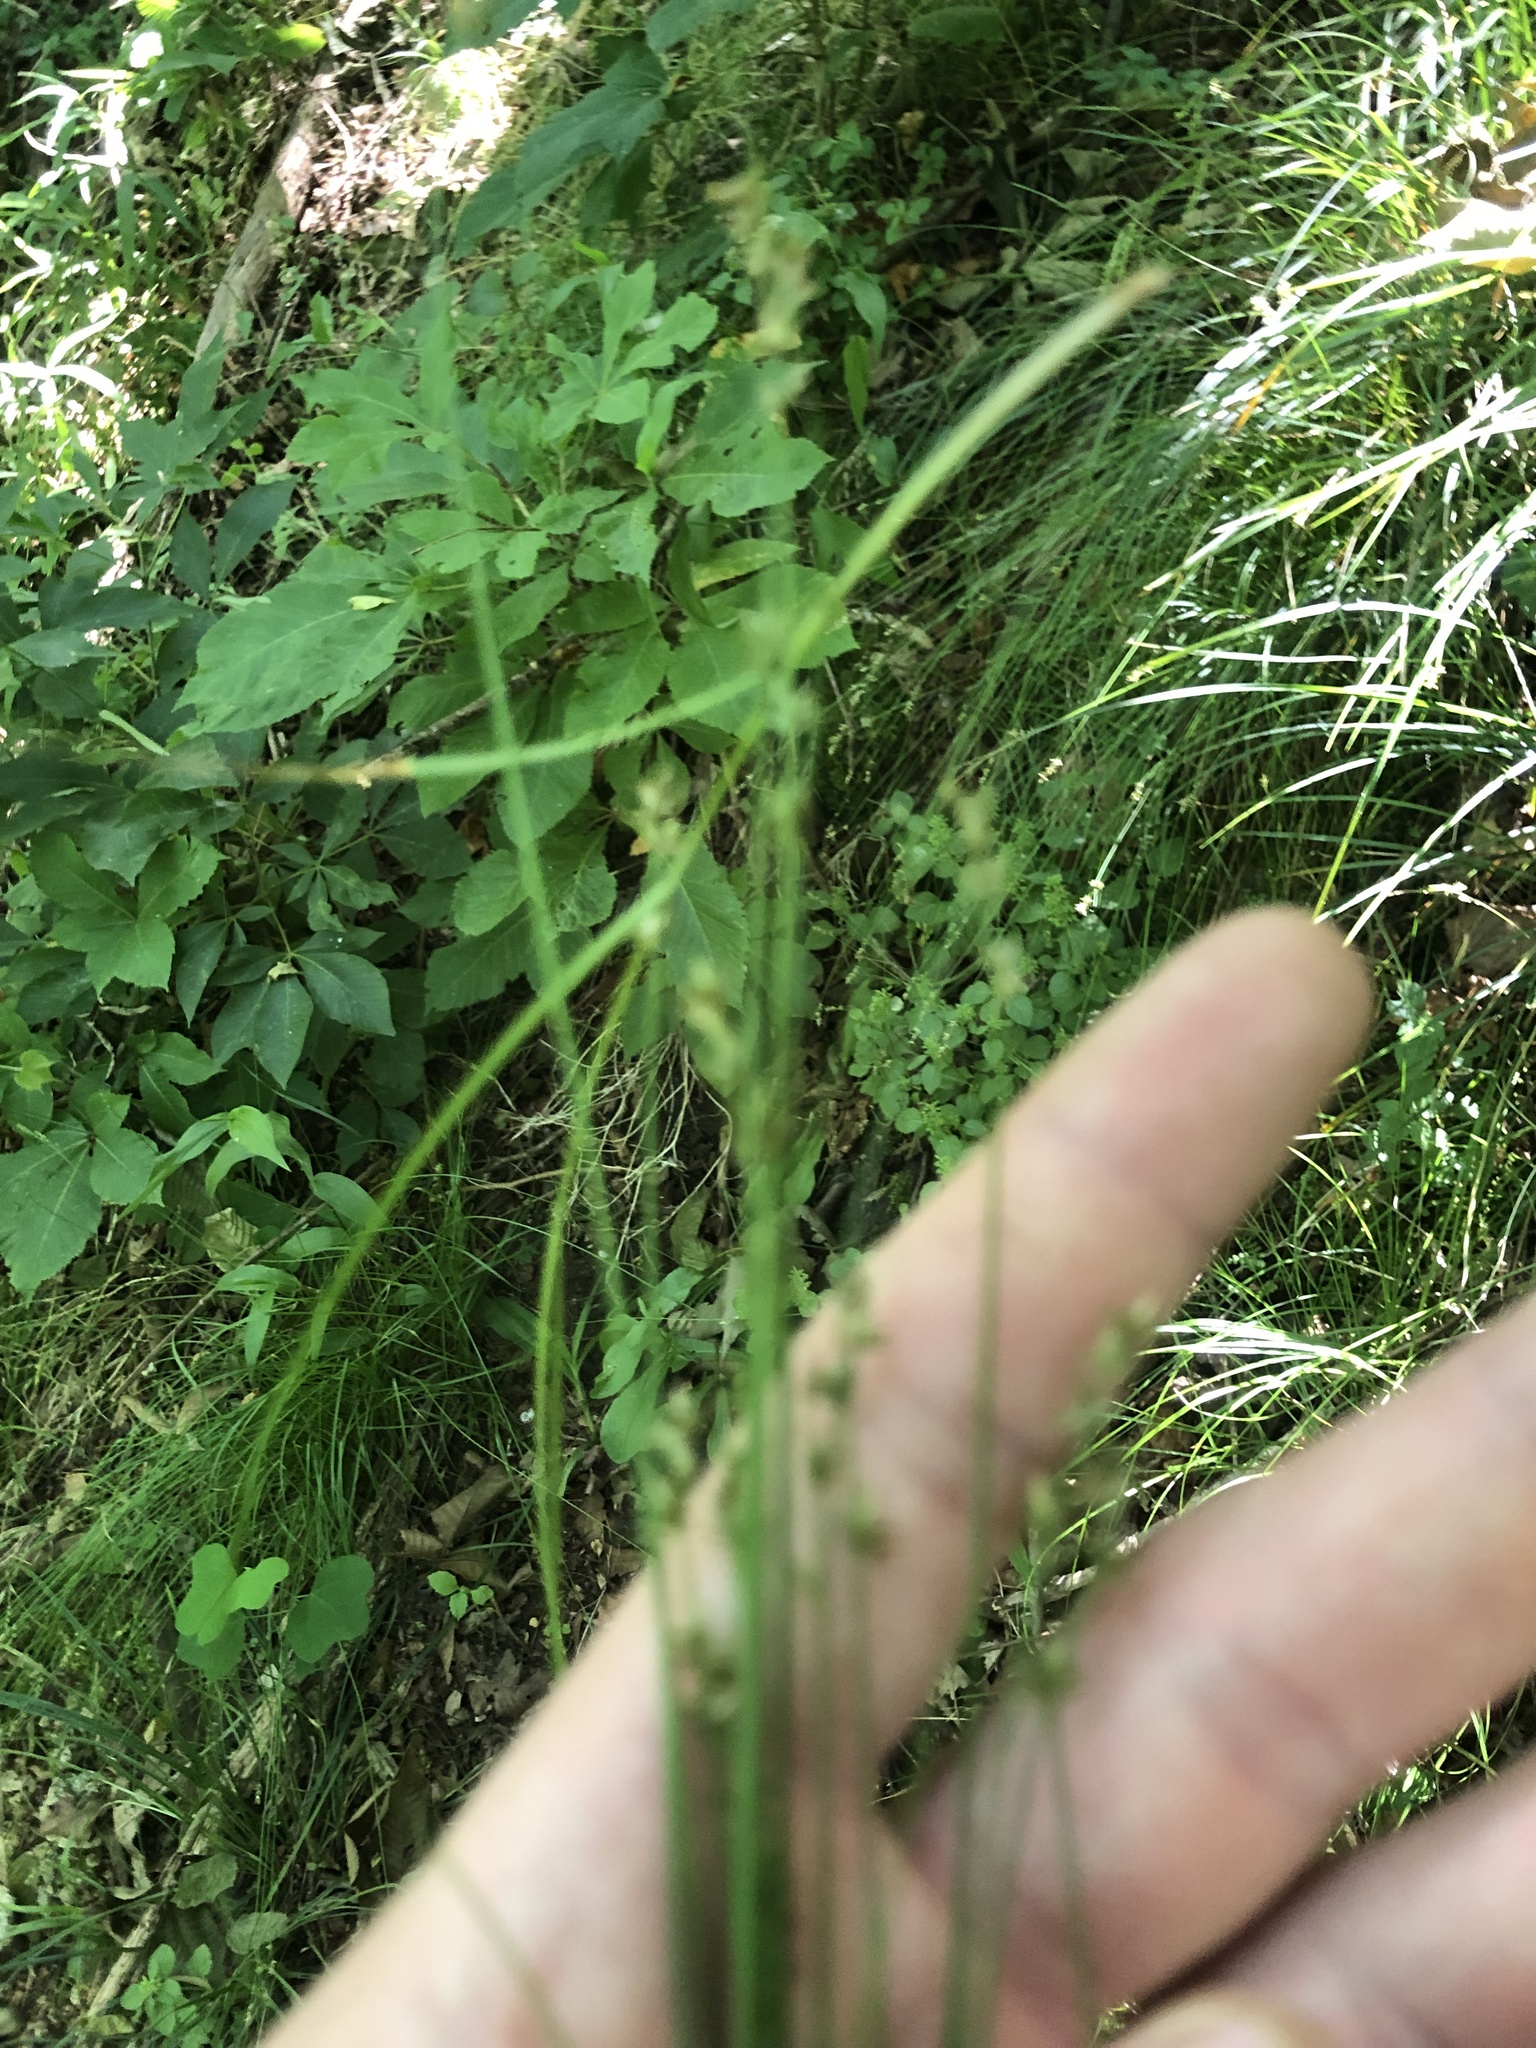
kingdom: Plantae
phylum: Tracheophyta
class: Liliopsida
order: Poales
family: Cyperaceae
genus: Carex
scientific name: Carex rosea
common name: Curly-styled wood sedge
